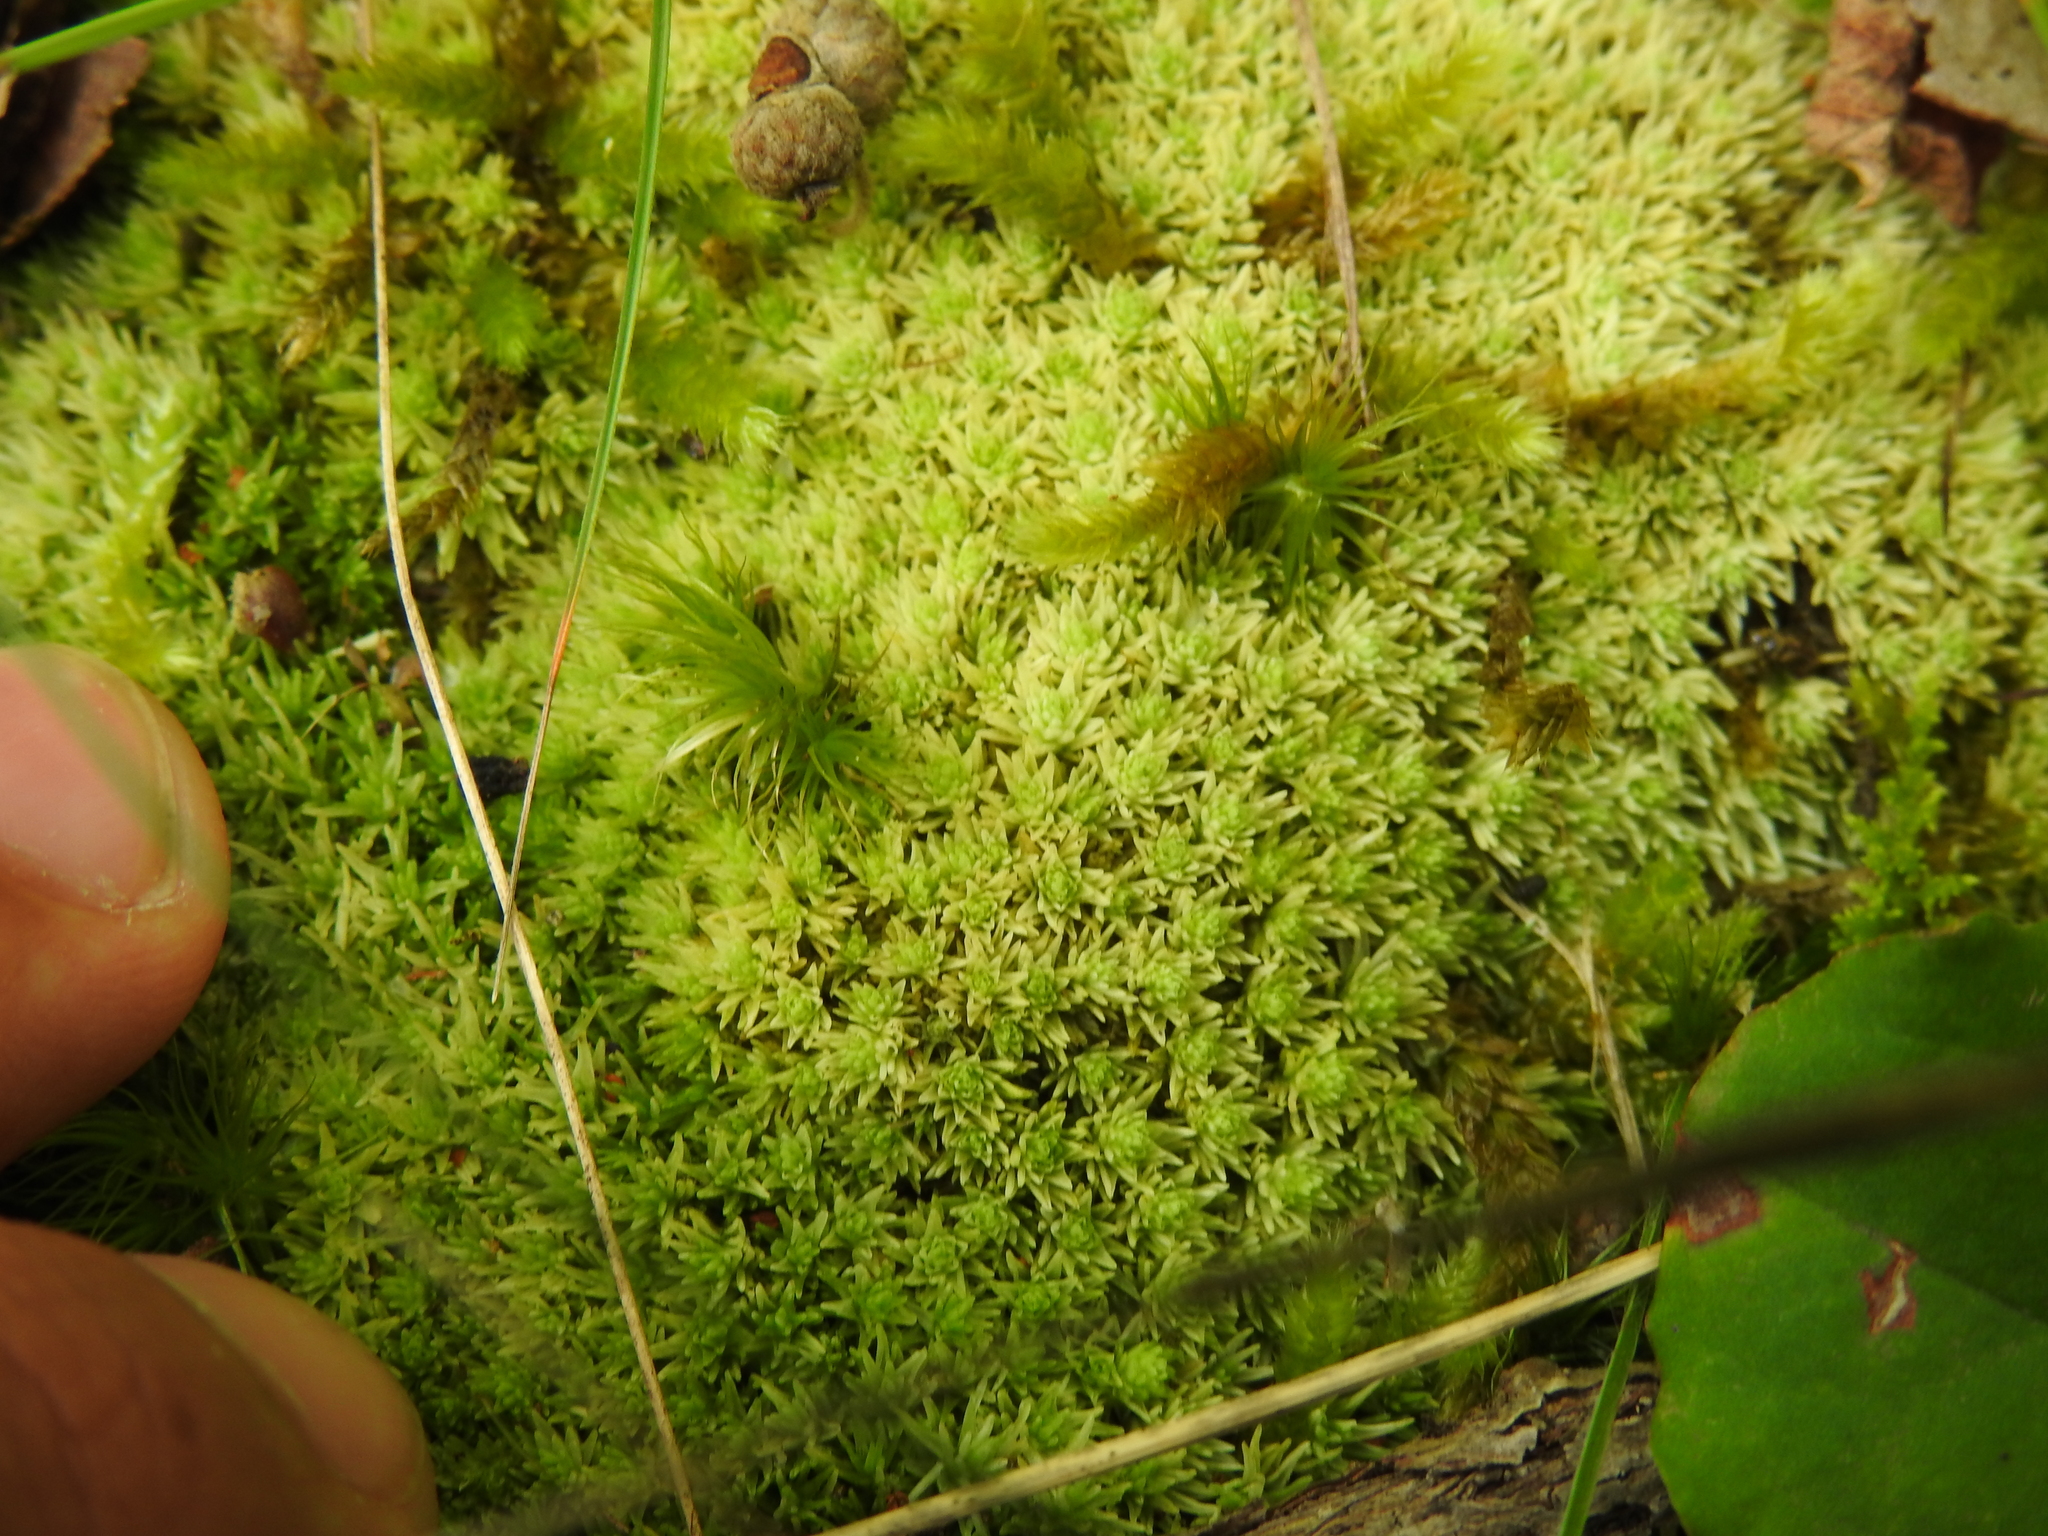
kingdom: Plantae
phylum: Bryophyta
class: Bryopsida
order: Dicranales
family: Leucobryaceae
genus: Leucobryum
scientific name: Leucobryum glaucum
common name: Large white-moss
